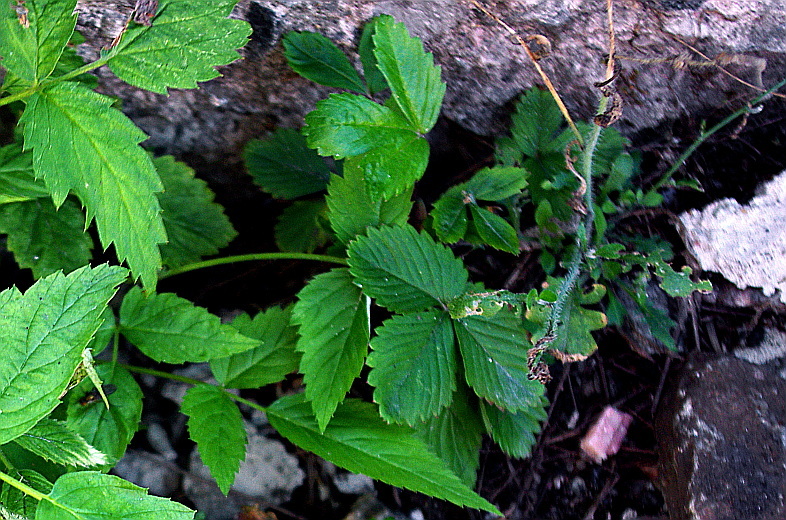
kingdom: Plantae
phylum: Tracheophyta
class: Magnoliopsida
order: Rosales
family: Rosaceae
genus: Fragaria
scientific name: Fragaria vesca
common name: Wild strawberry
